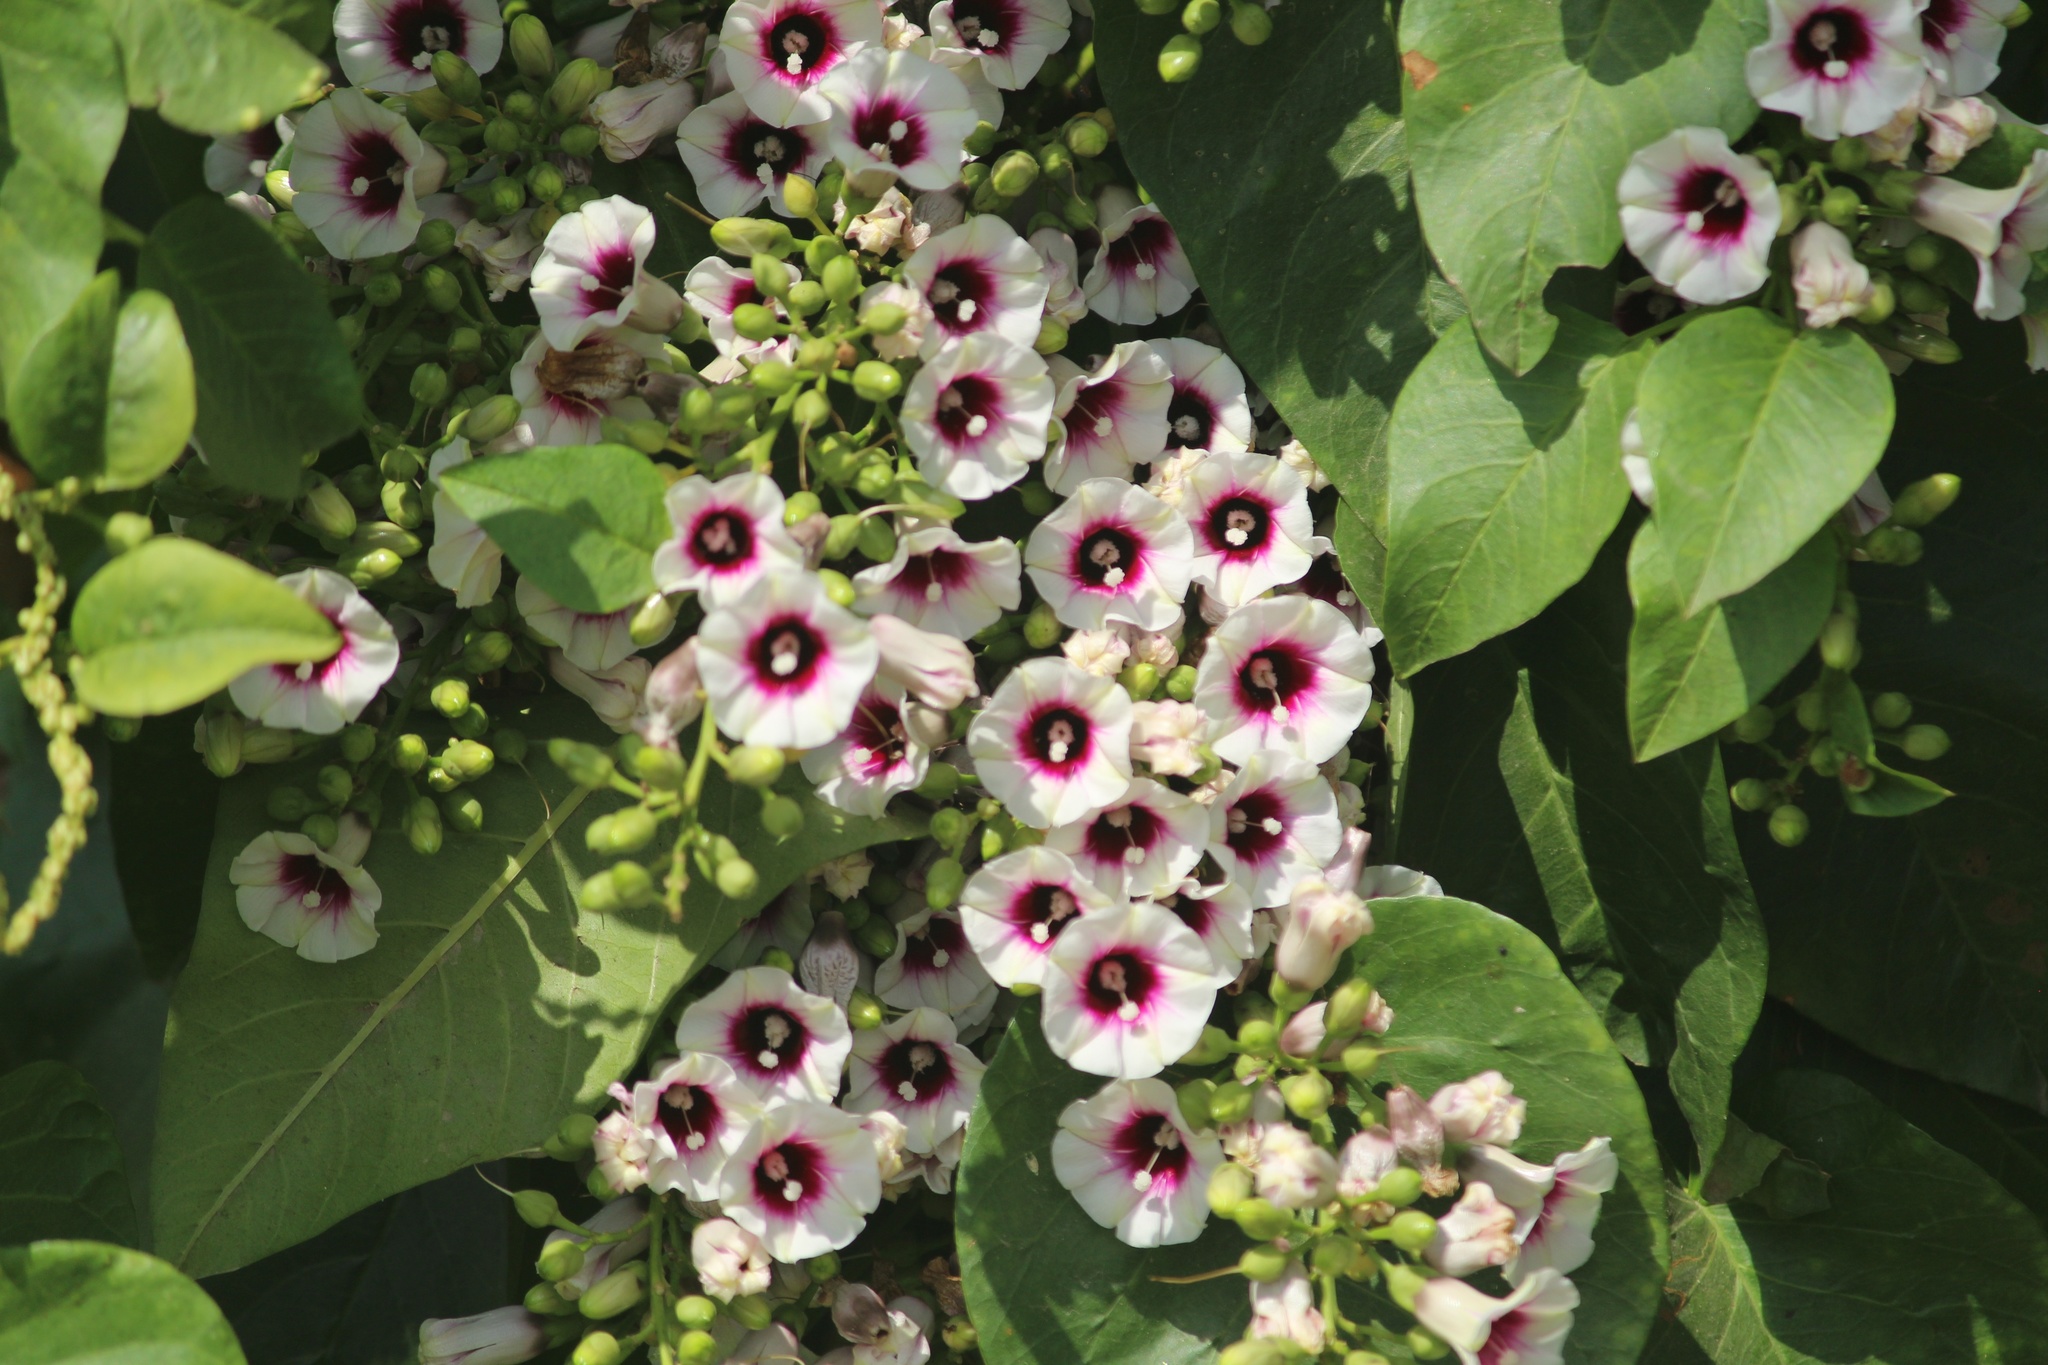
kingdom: Plantae
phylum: Tracheophyta
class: Magnoliopsida
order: Solanales
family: Convolvulaceae
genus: Ipomoea
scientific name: Ipomoea staphylina
